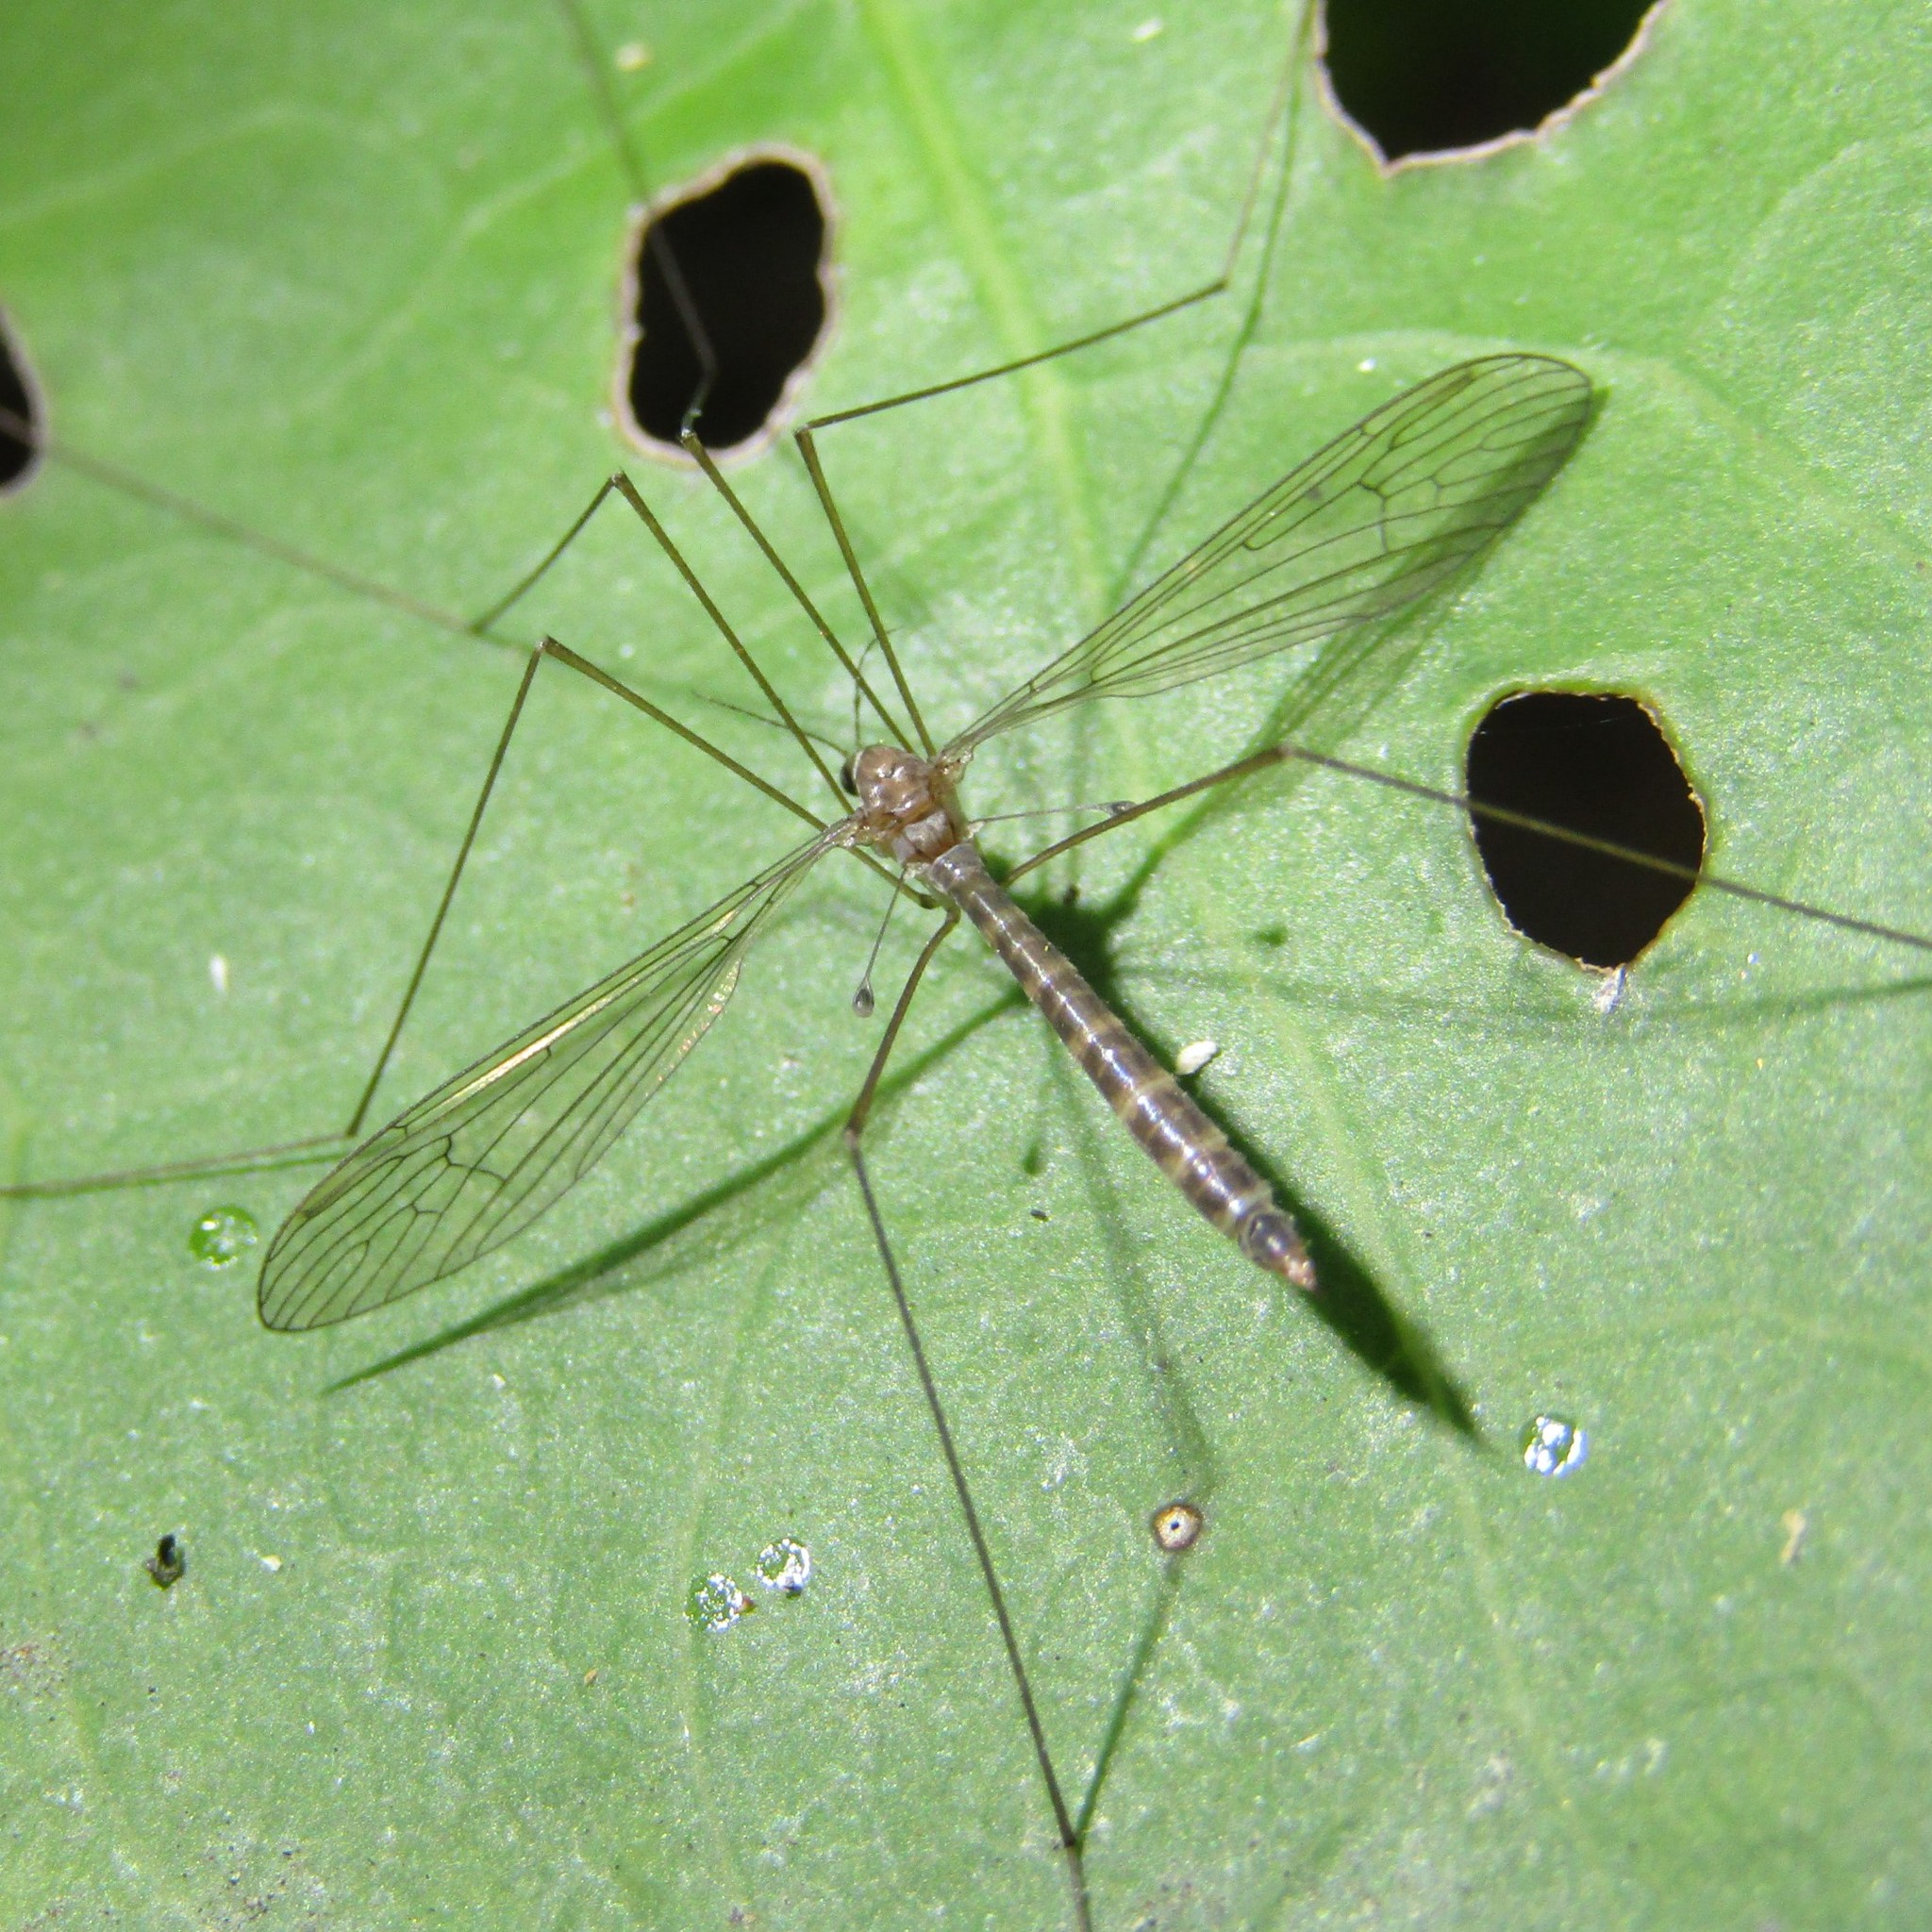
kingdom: Animalia
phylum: Arthropoda
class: Insecta
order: Diptera
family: Limoniidae
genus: Limnophilella
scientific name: Limnophilella delicatula
